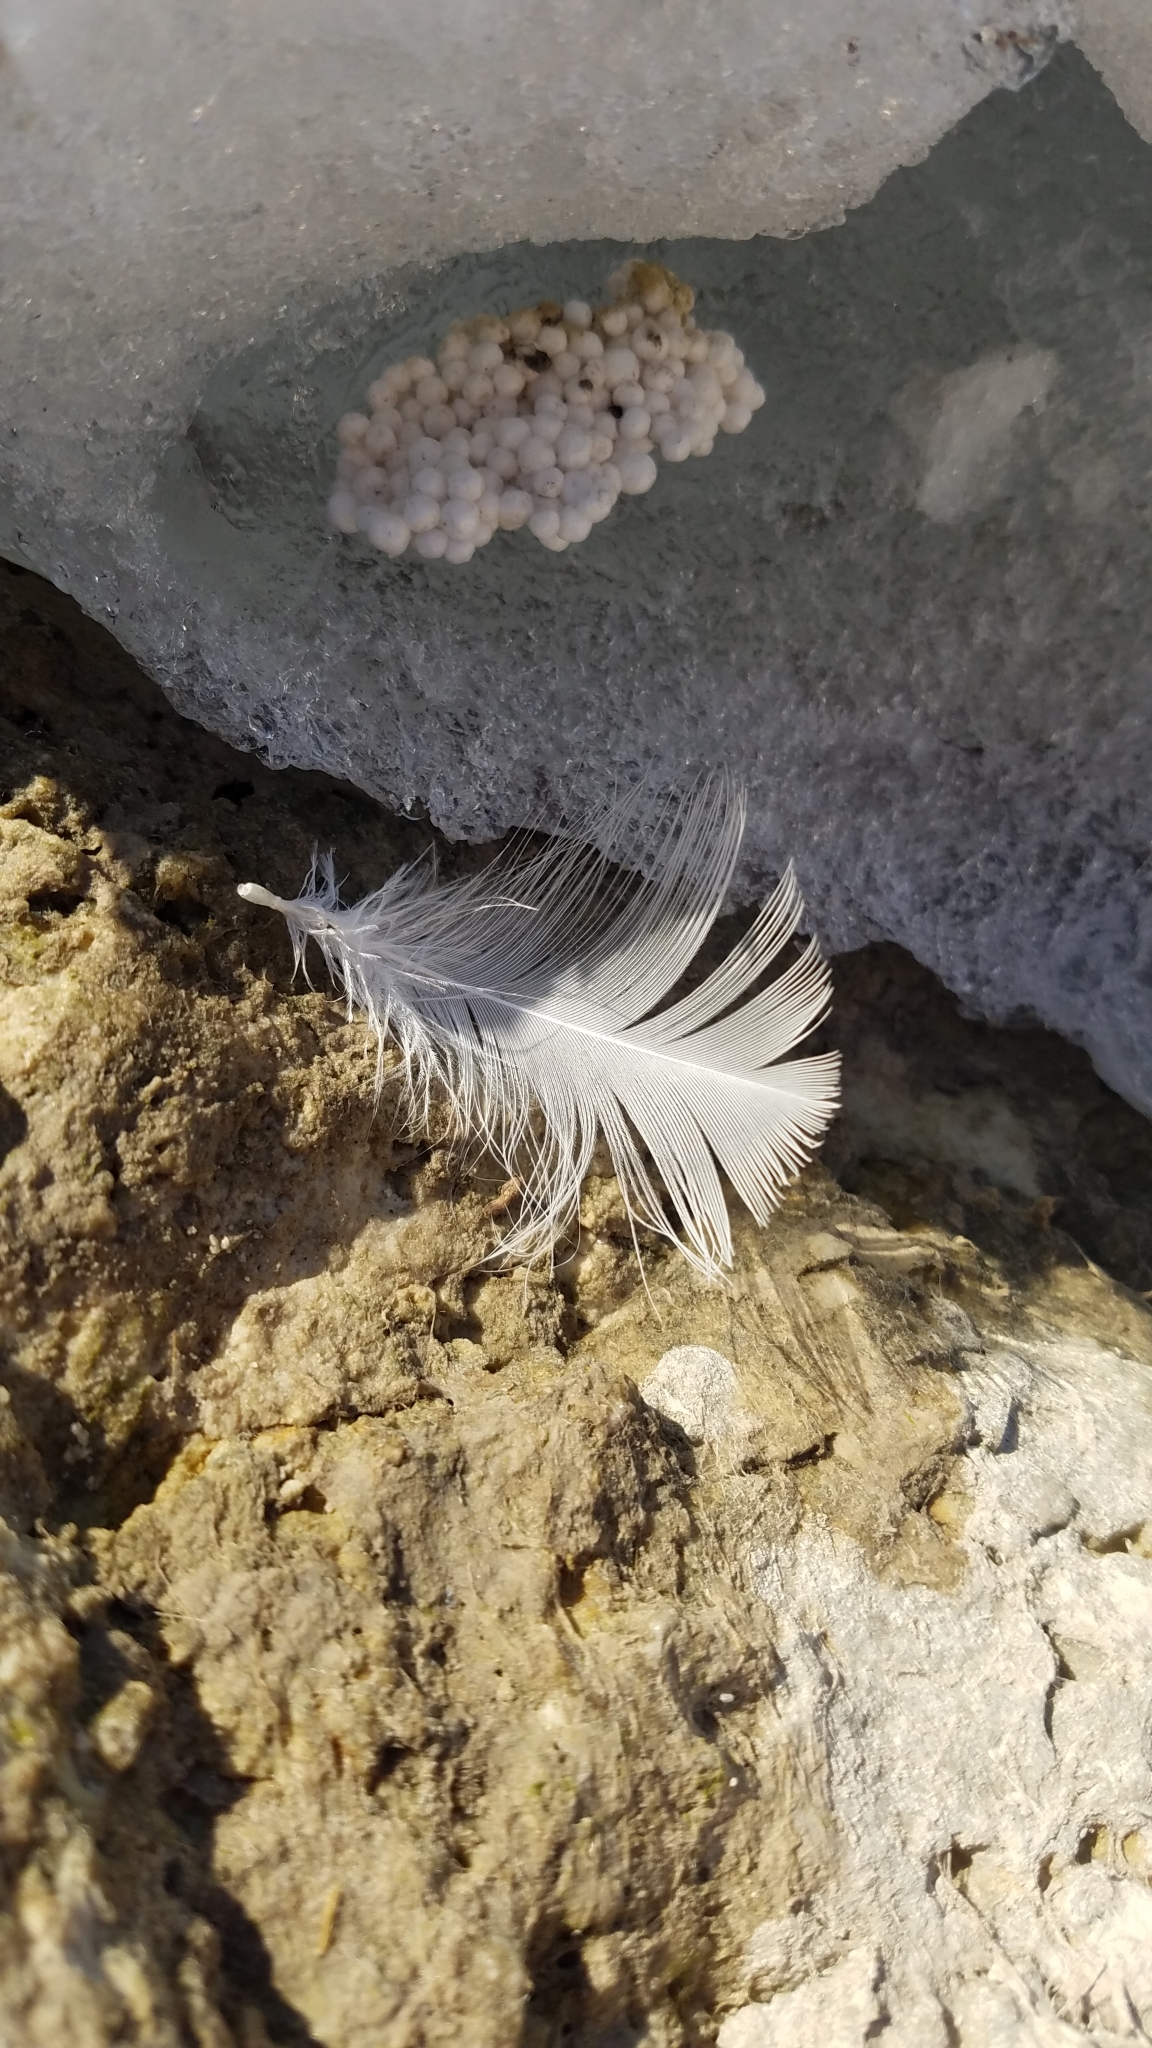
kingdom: Animalia
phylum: Chordata
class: Aves
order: Charadriiformes
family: Laridae
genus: Larus
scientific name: Larus
